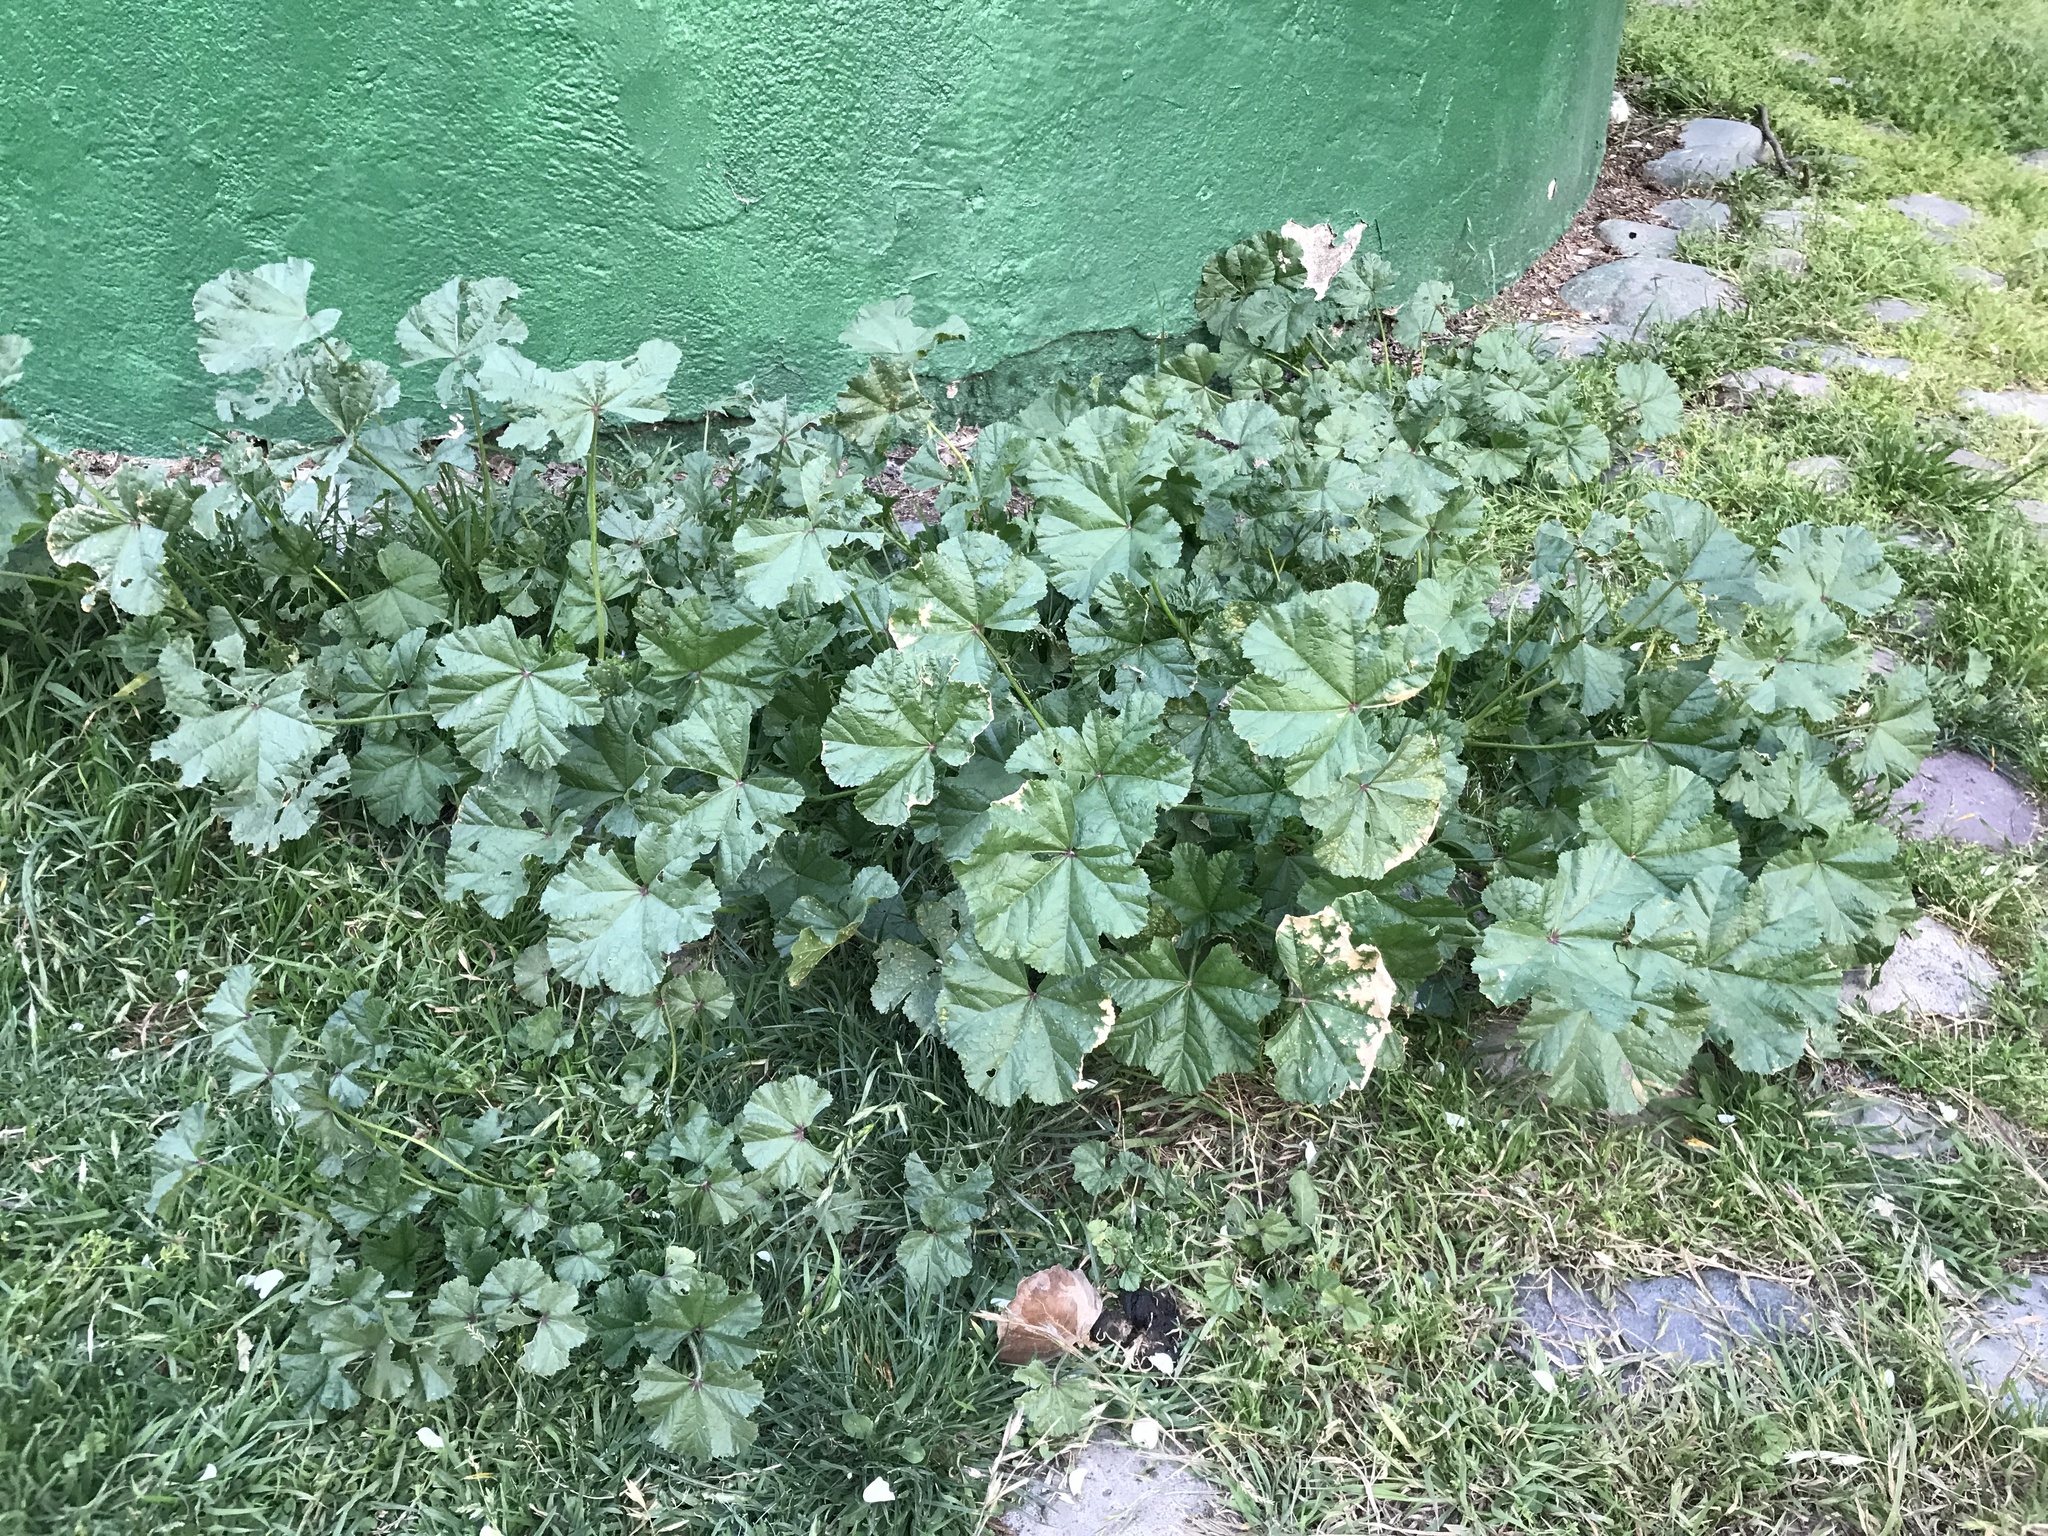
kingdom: Plantae
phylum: Tracheophyta
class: Magnoliopsida
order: Malvales
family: Malvaceae
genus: Malva
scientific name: Malva parviflora
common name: Least mallow
